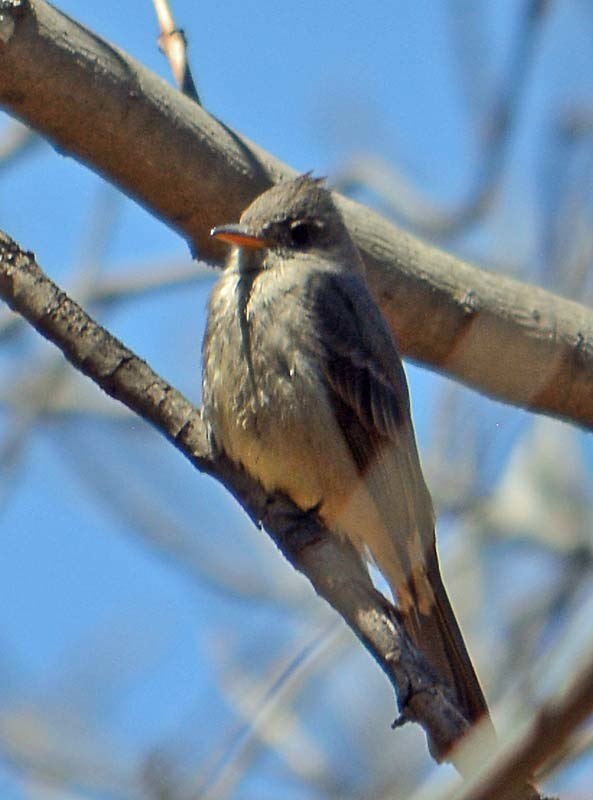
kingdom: Animalia
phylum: Chordata
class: Aves
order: Passeriformes
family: Tyrannidae
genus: Contopus
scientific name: Contopus pertinax
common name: Greater pewee
